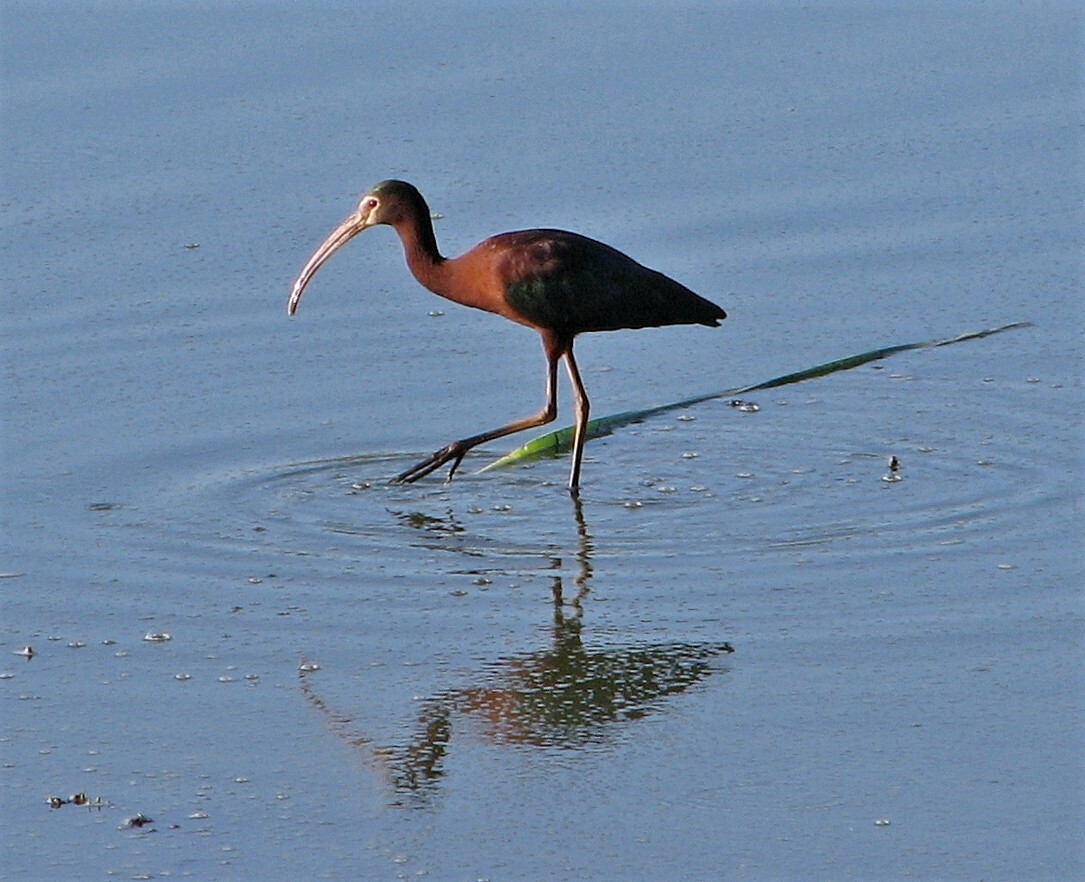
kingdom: Animalia
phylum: Chordata
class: Aves
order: Pelecaniformes
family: Threskiornithidae
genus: Plegadis
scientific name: Plegadis chihi
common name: White-faced ibis
